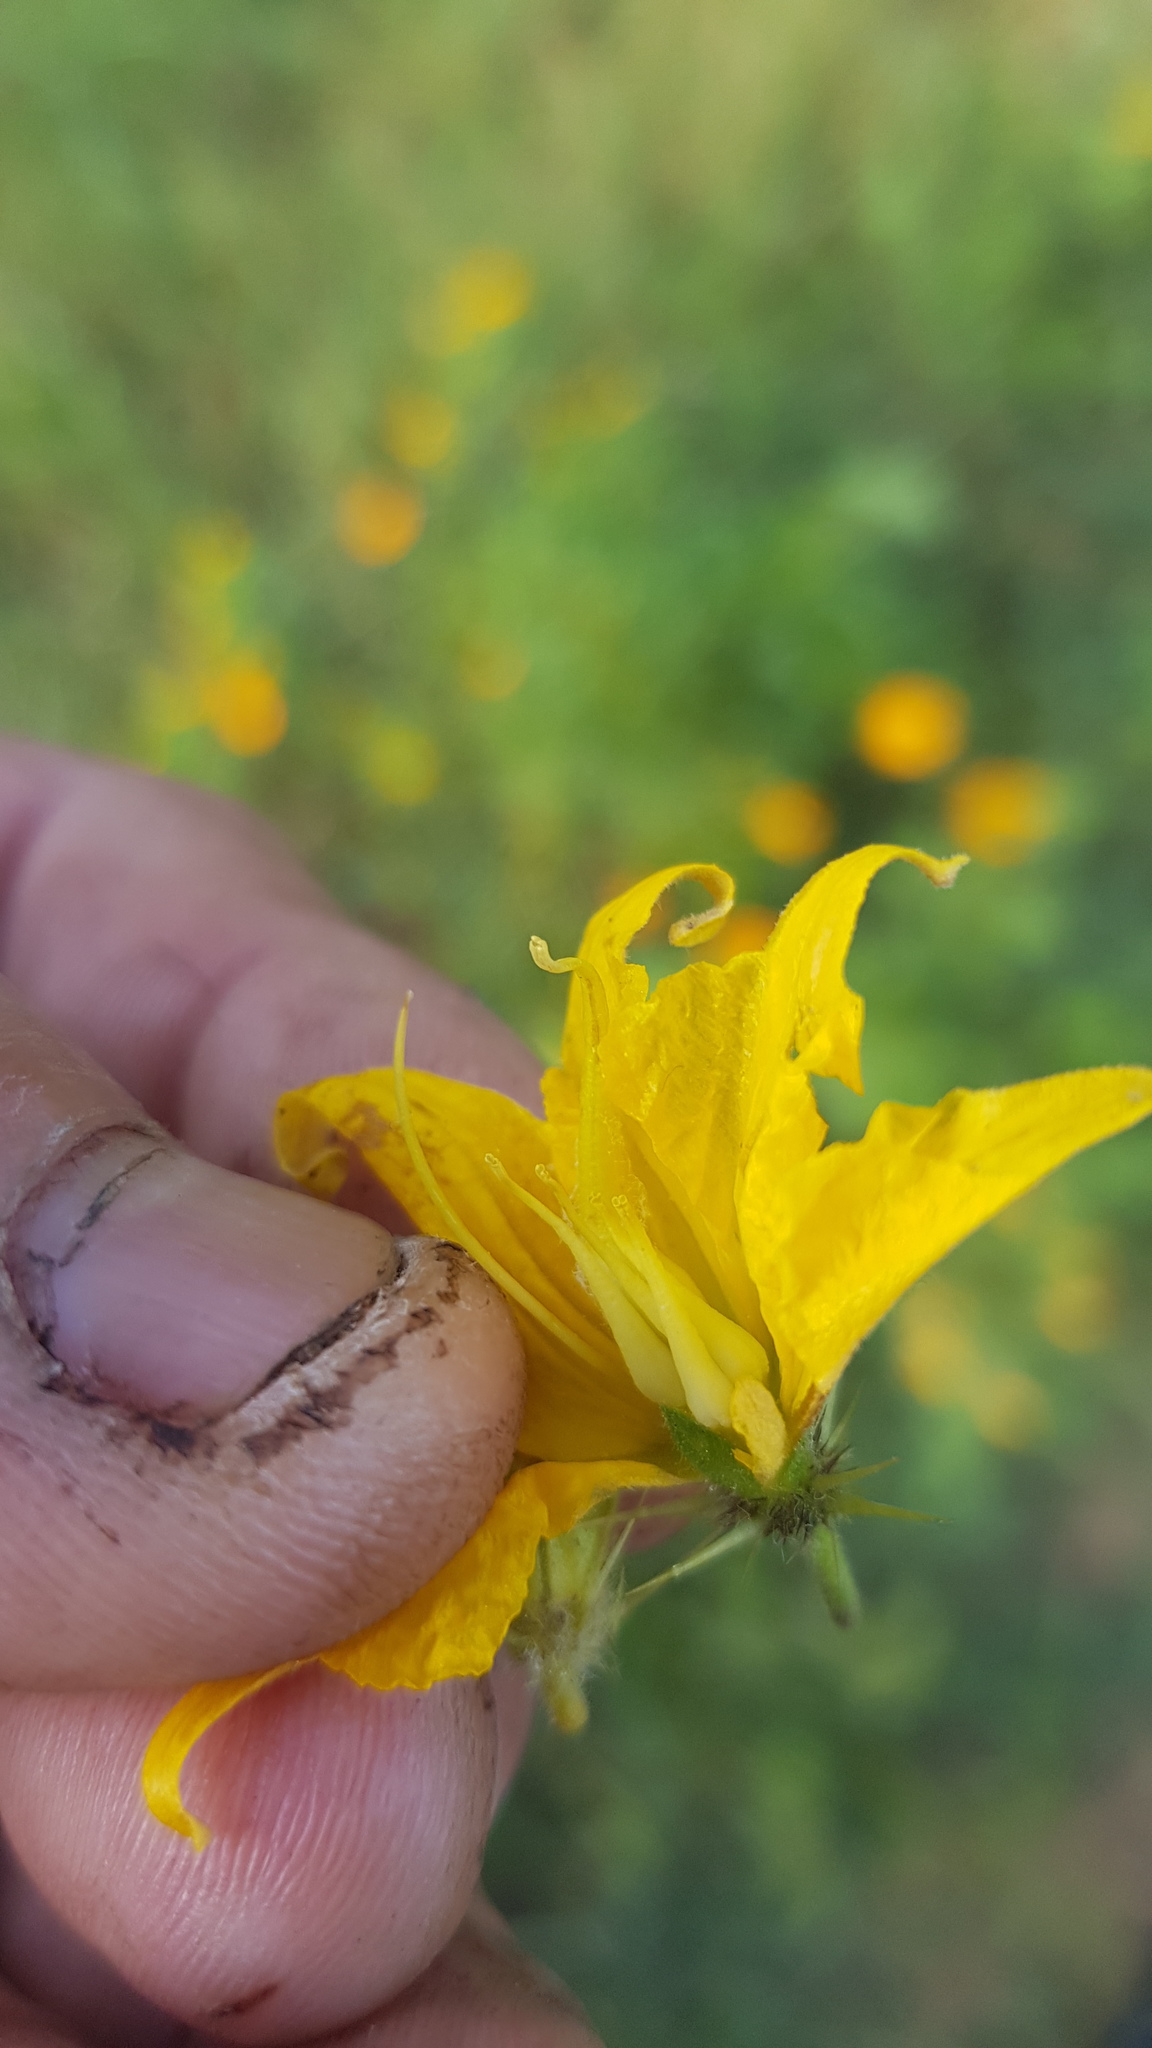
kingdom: Plantae
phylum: Tracheophyta
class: Magnoliopsida
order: Solanales
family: Solanaceae
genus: Solanum
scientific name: Solanum angustifolium
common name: Buffalobur nightshade
